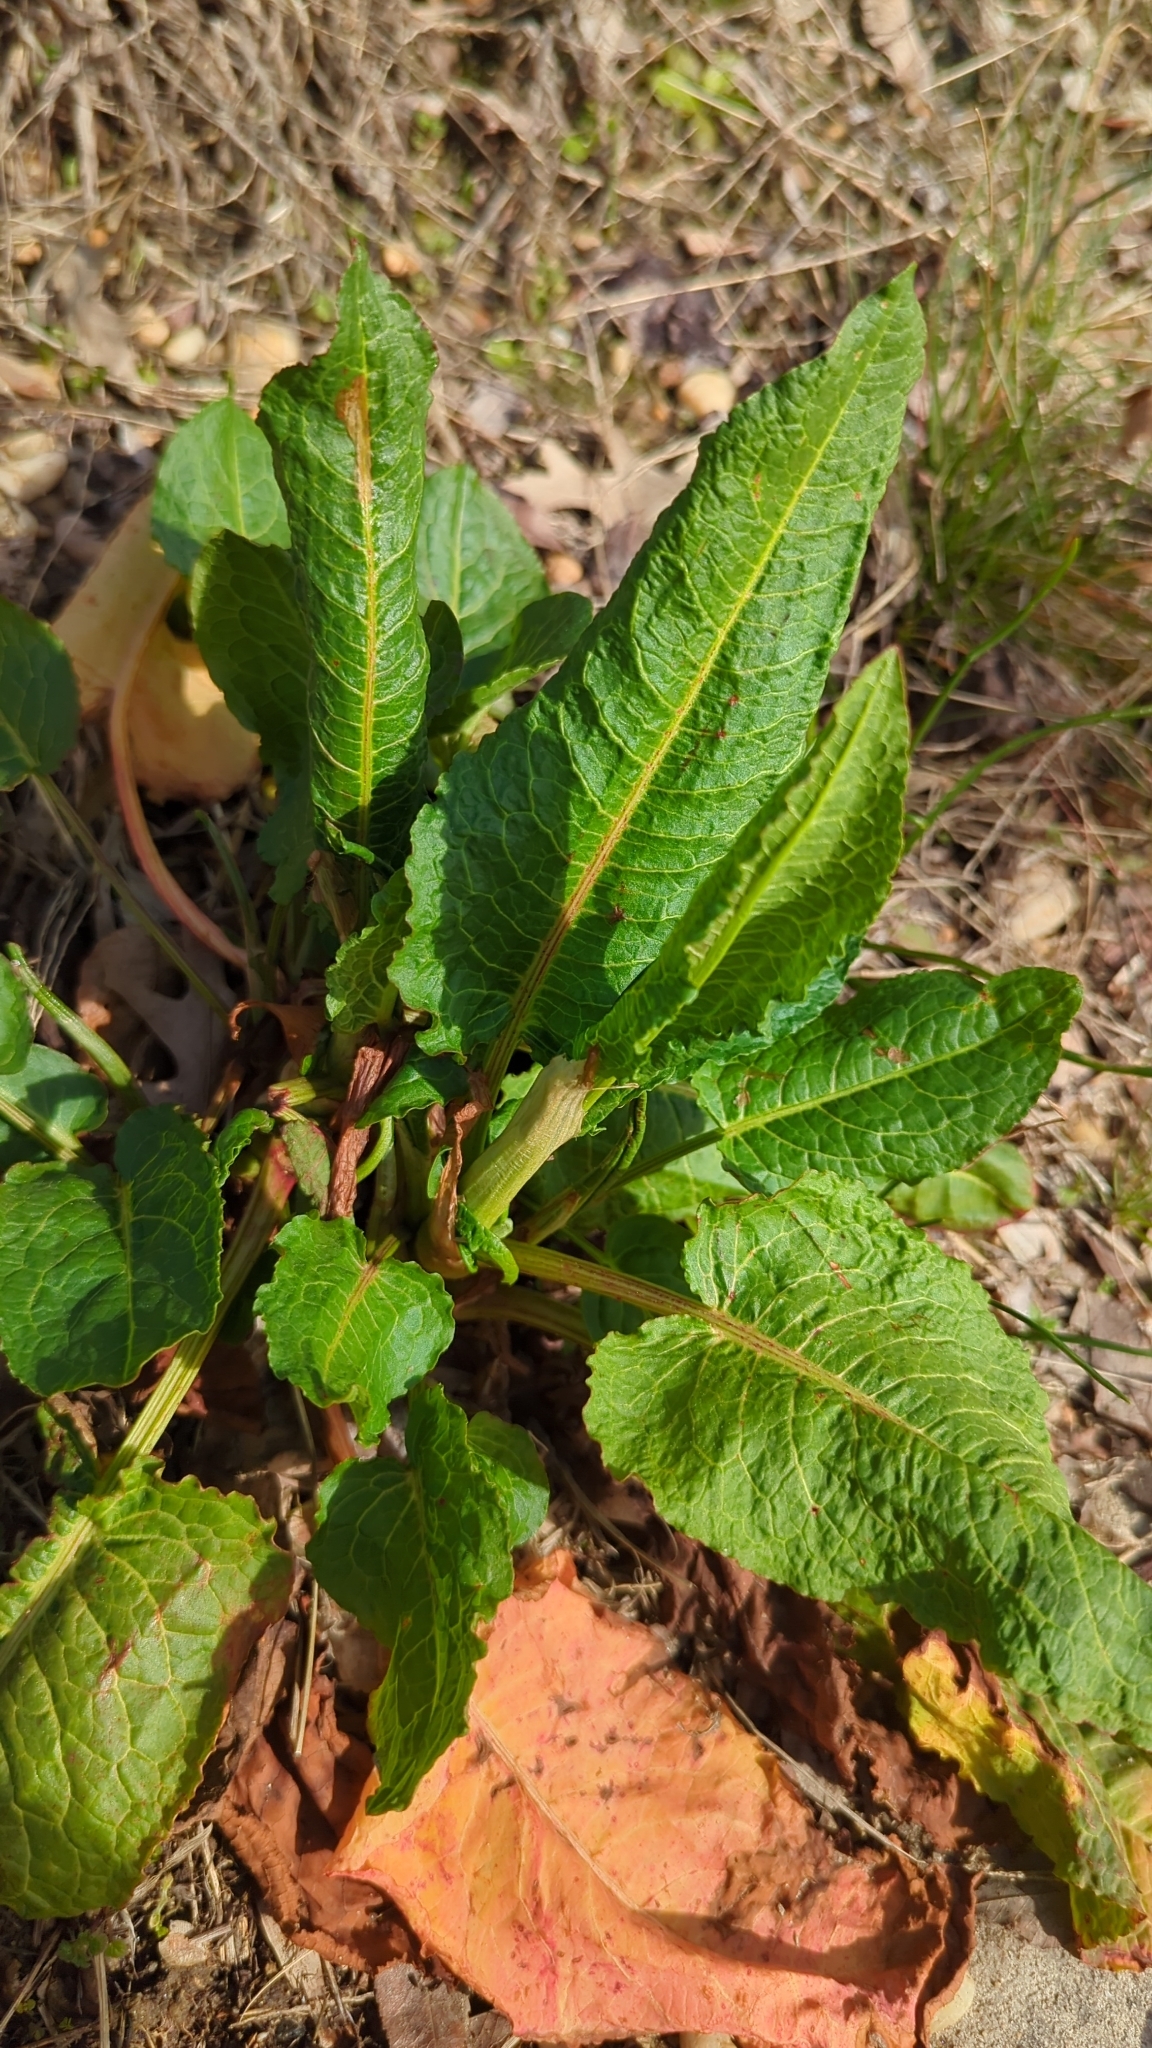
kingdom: Plantae
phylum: Tracheophyta
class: Magnoliopsida
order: Caryophyllales
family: Polygonaceae
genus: Rumex
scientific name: Rumex obtusifolius
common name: Bitter dock
